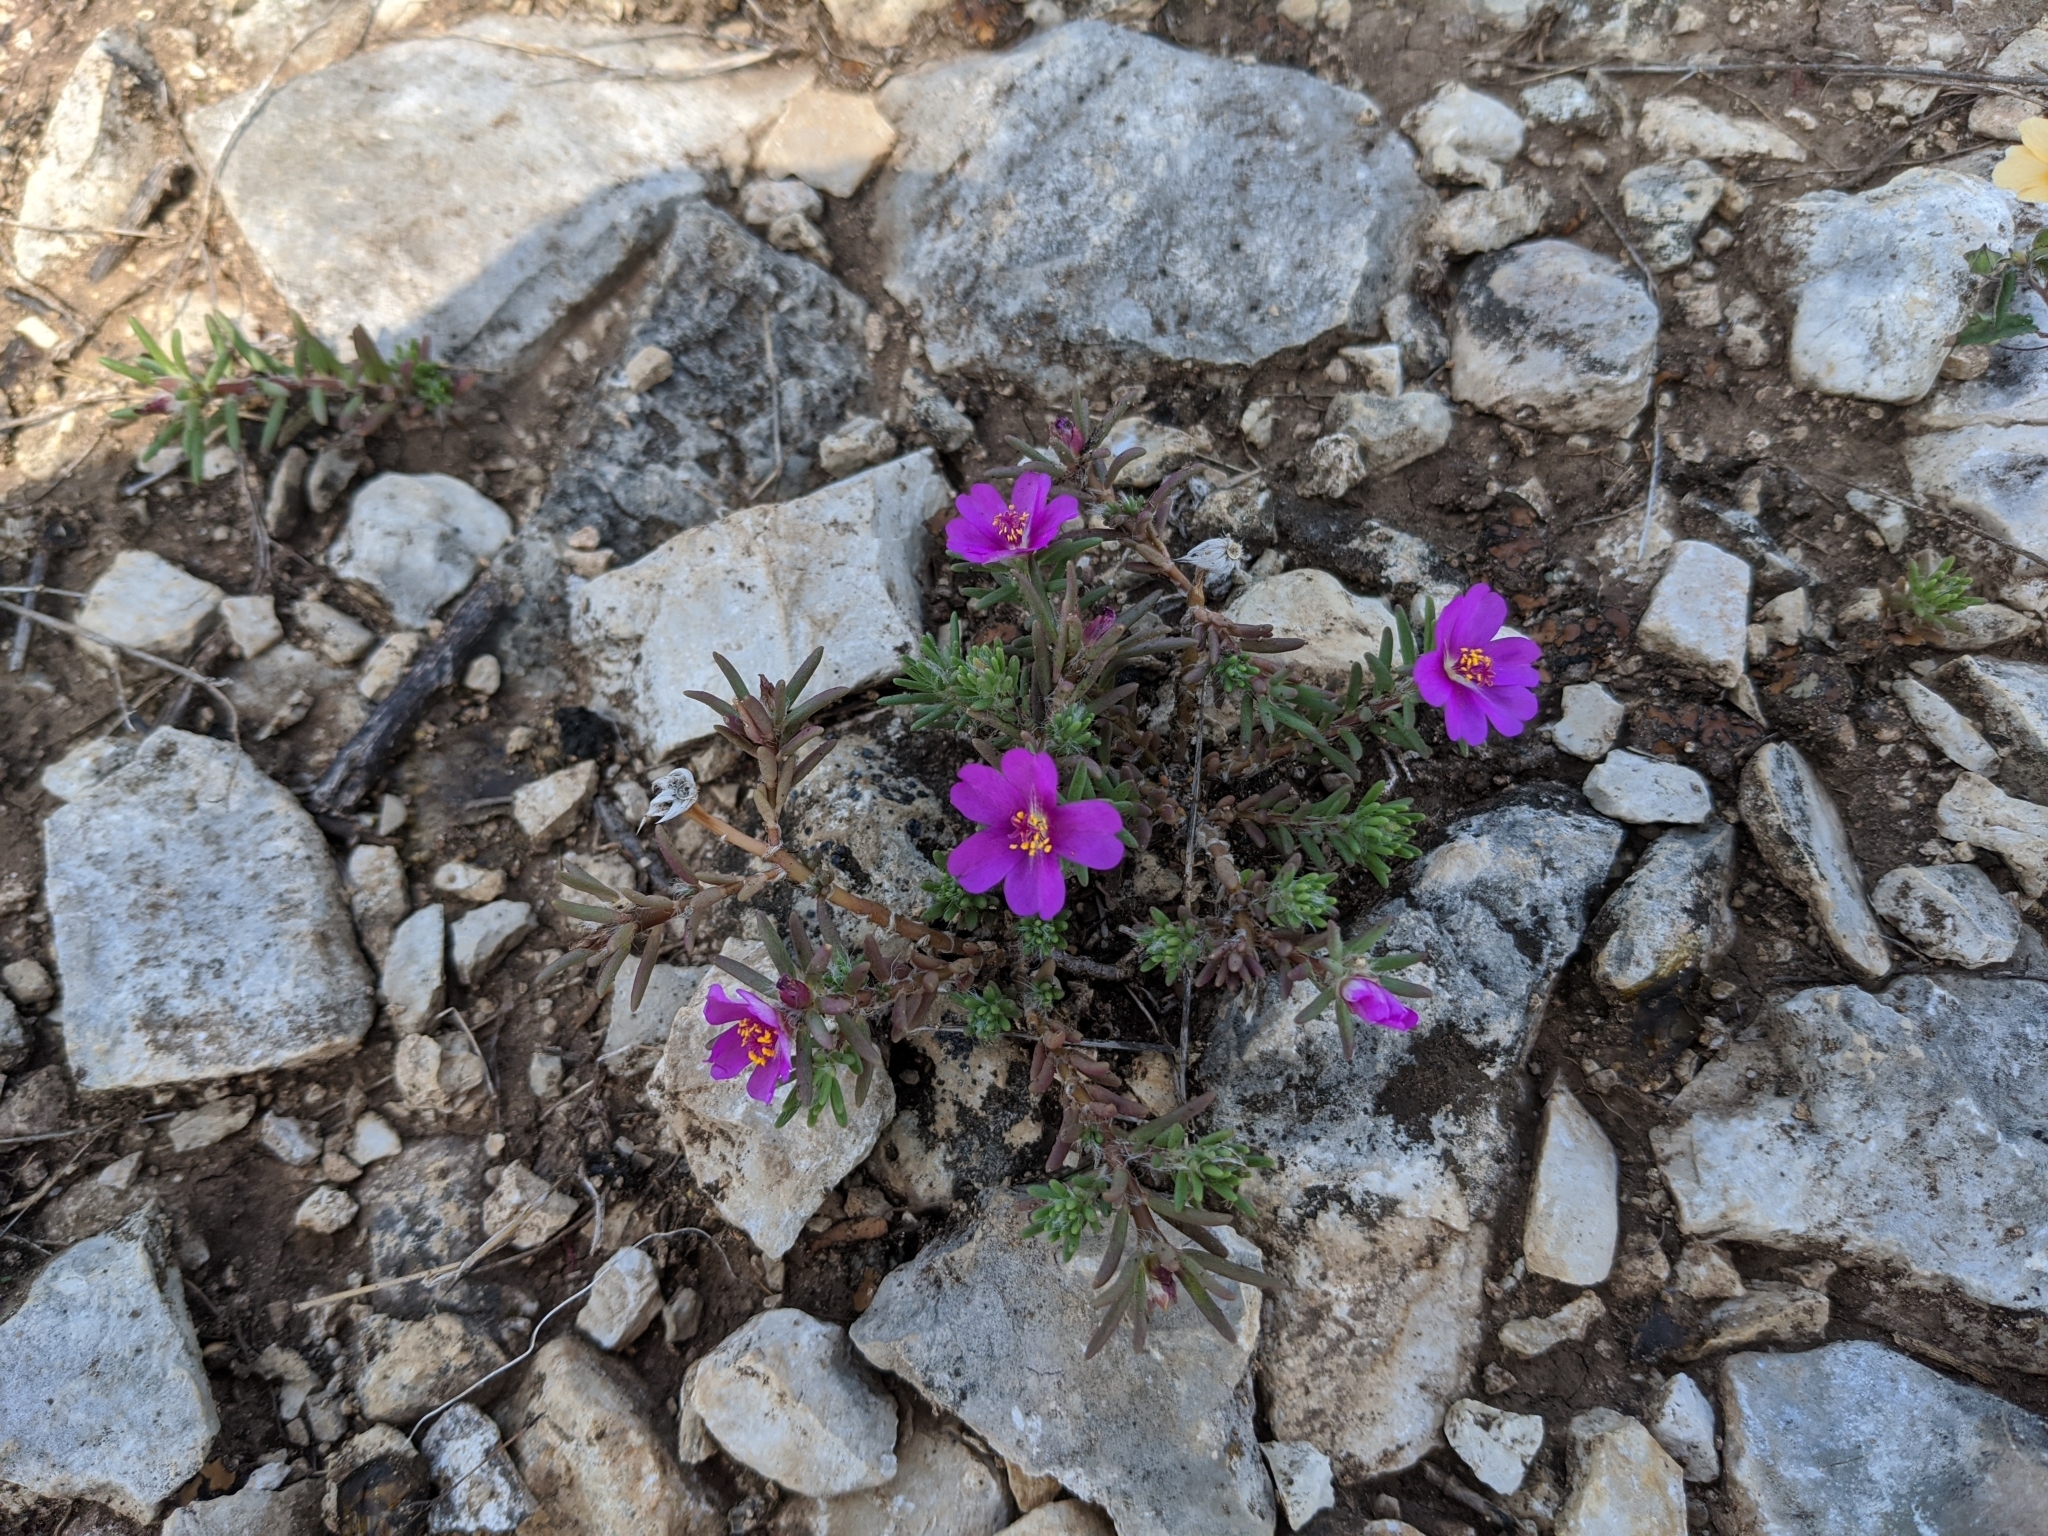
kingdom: Plantae
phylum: Tracheophyta
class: Magnoliopsida
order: Caryophyllales
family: Portulacaceae
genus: Portulaca
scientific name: Portulaca pilosa
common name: Kiss me quick
